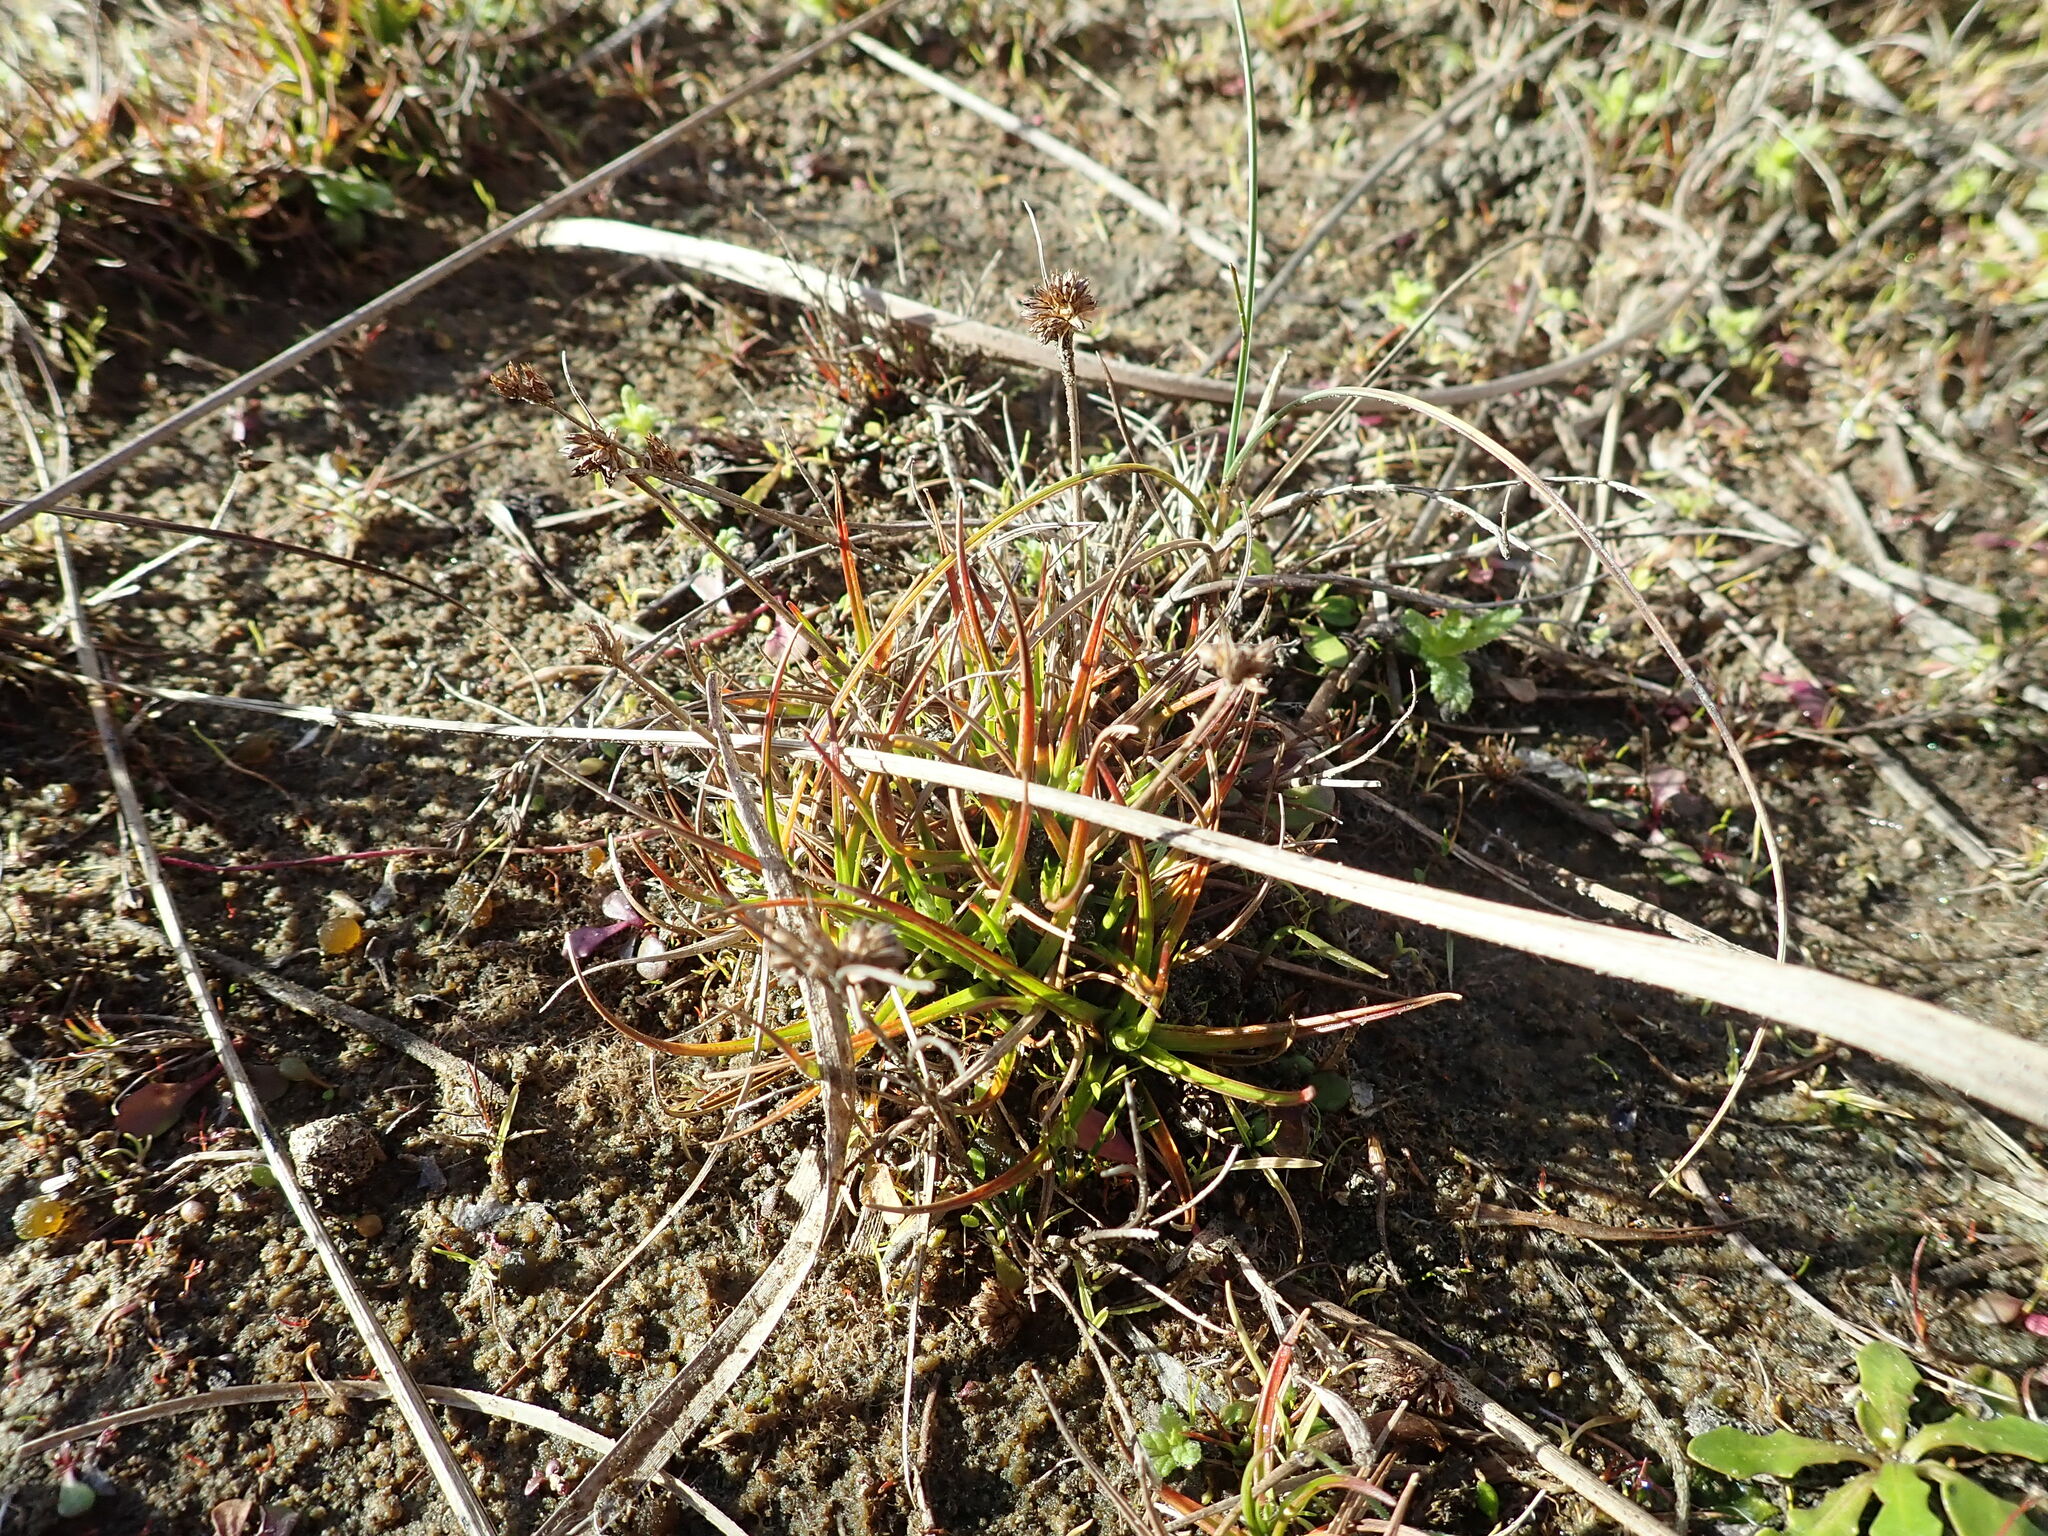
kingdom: Plantae
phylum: Tracheophyta
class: Liliopsida
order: Poales
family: Juncaceae
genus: Juncus
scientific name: Juncus caespiticius
